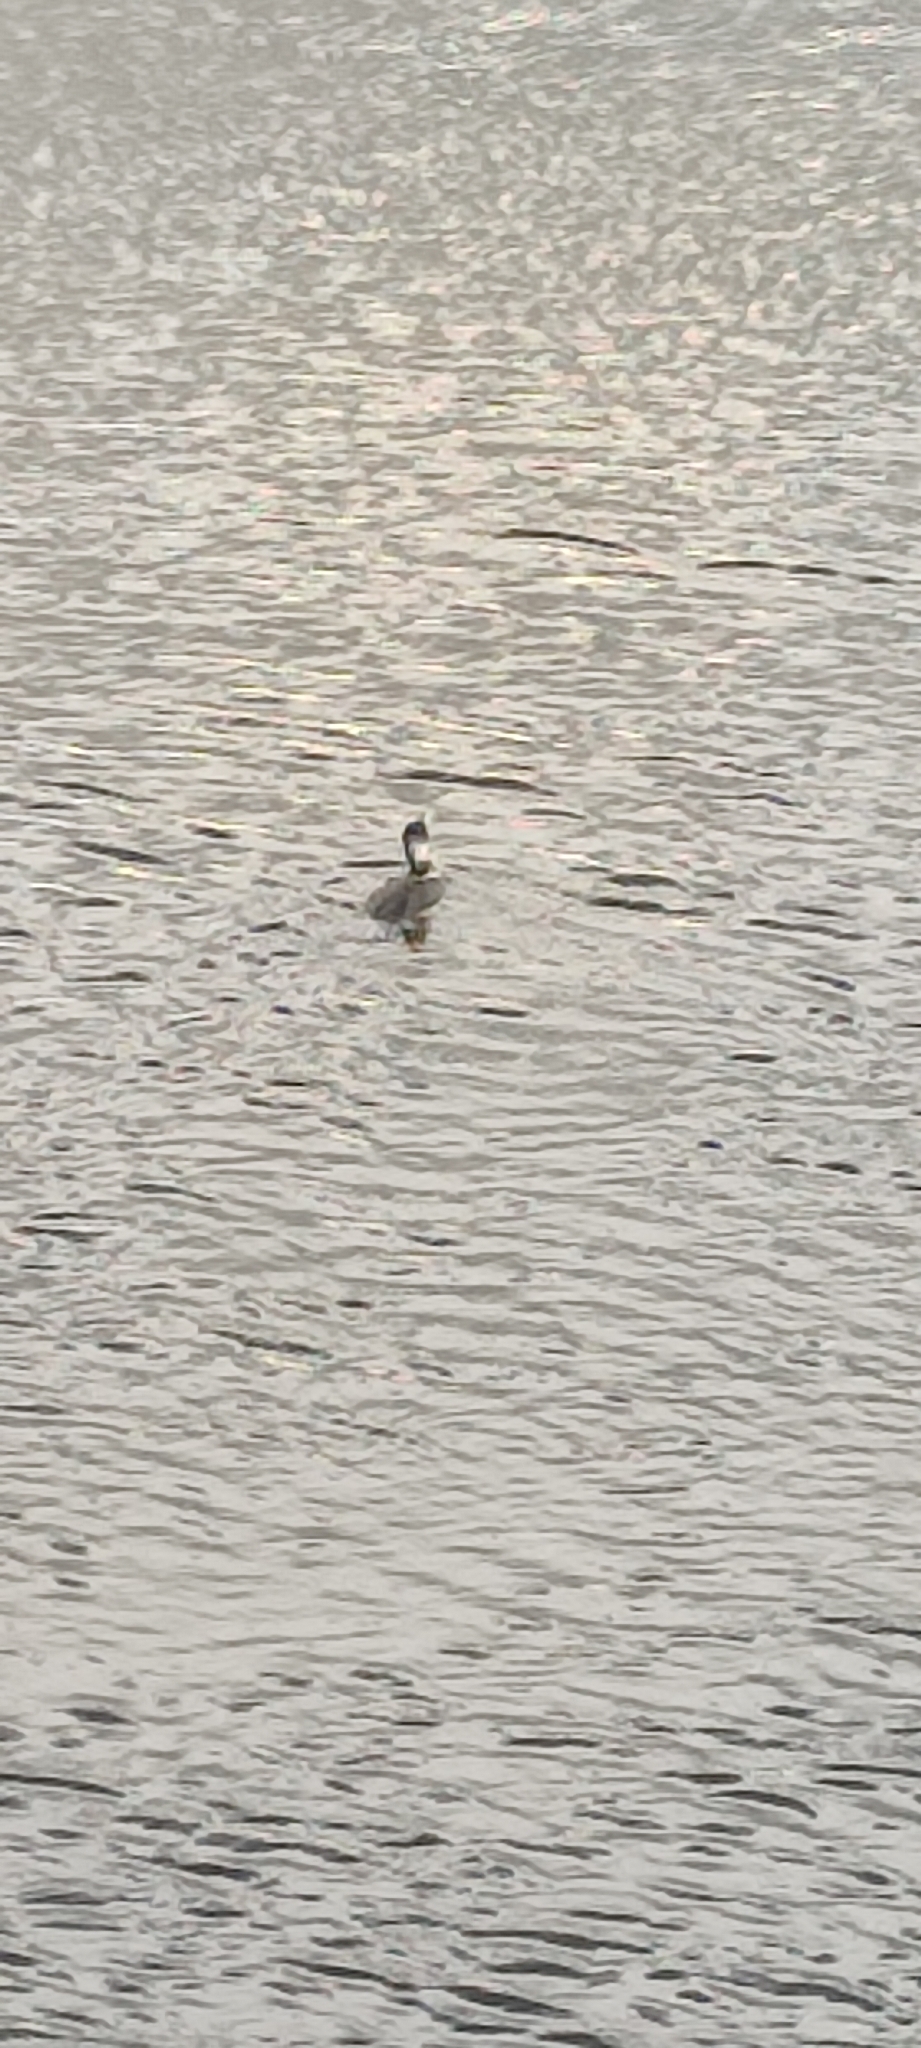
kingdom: Animalia
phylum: Chordata
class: Aves
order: Suliformes
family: Phalacrocoracidae
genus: Phalacrocorax
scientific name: Phalacrocorax carbo
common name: Great cormorant
